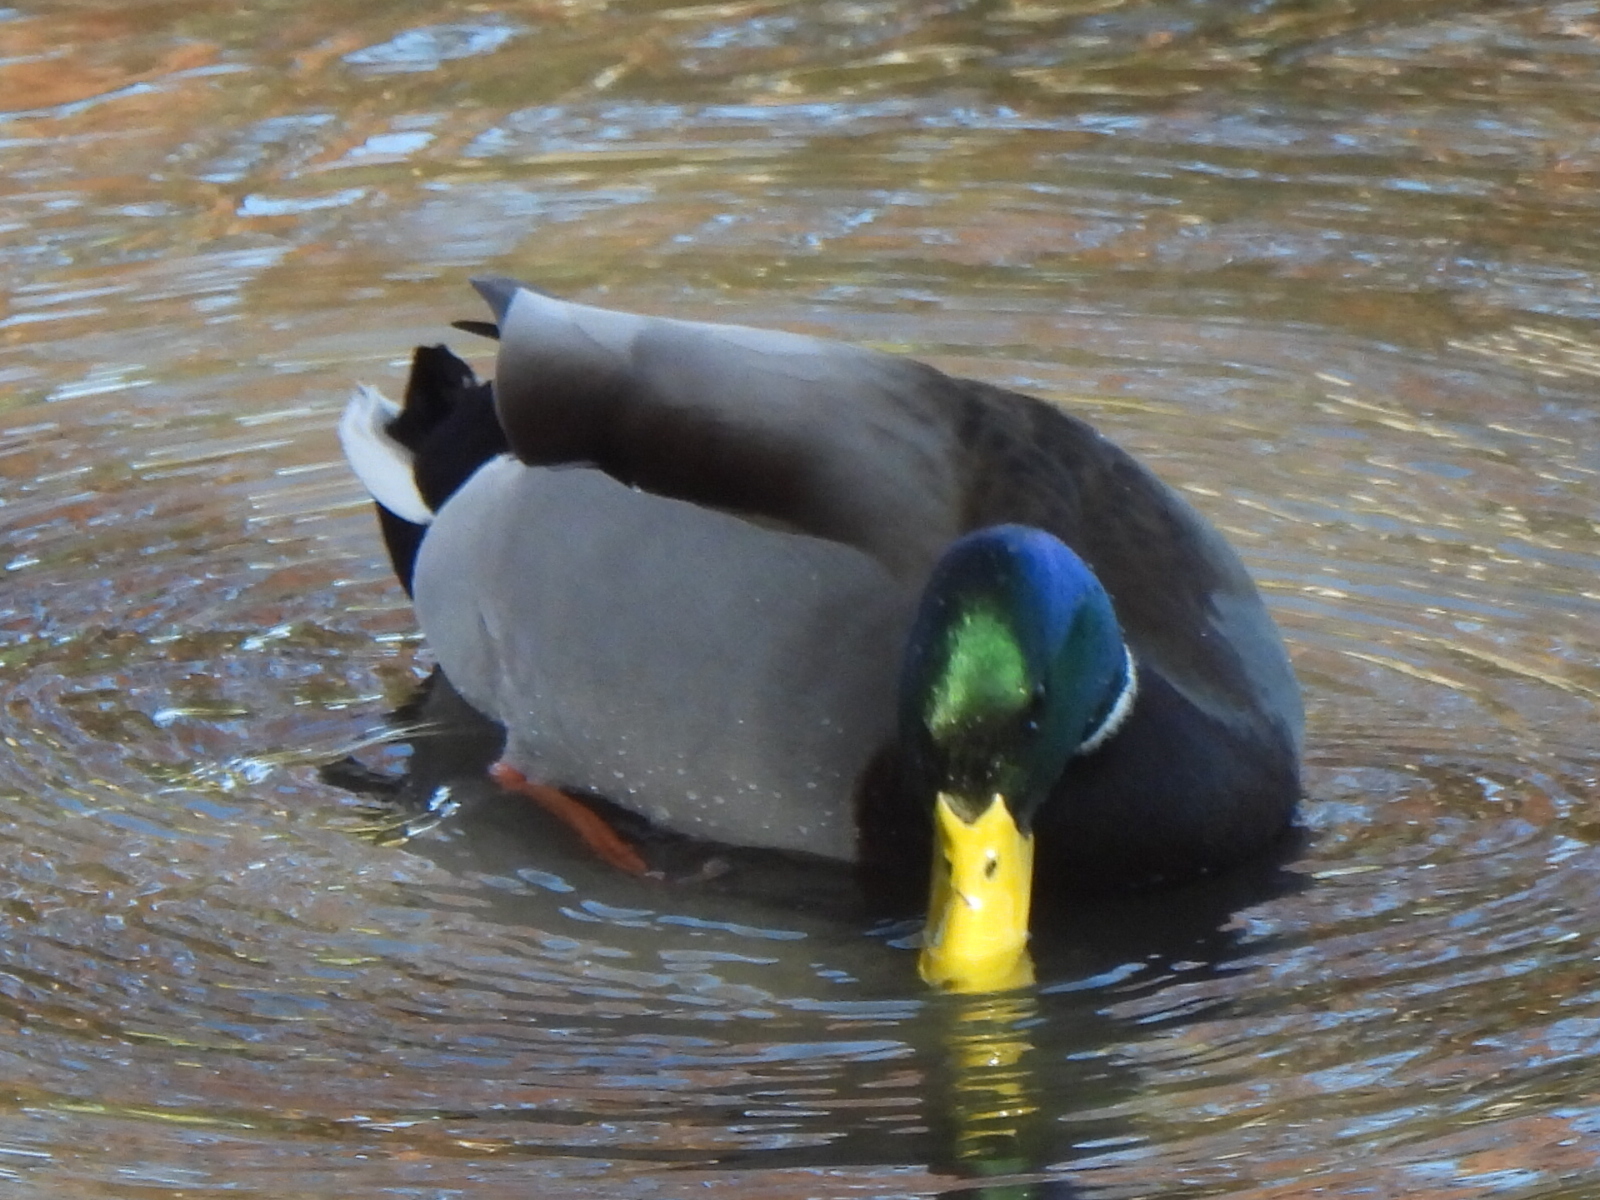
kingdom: Animalia
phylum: Chordata
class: Aves
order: Anseriformes
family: Anatidae
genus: Anas
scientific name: Anas platyrhynchos
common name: Mallard
